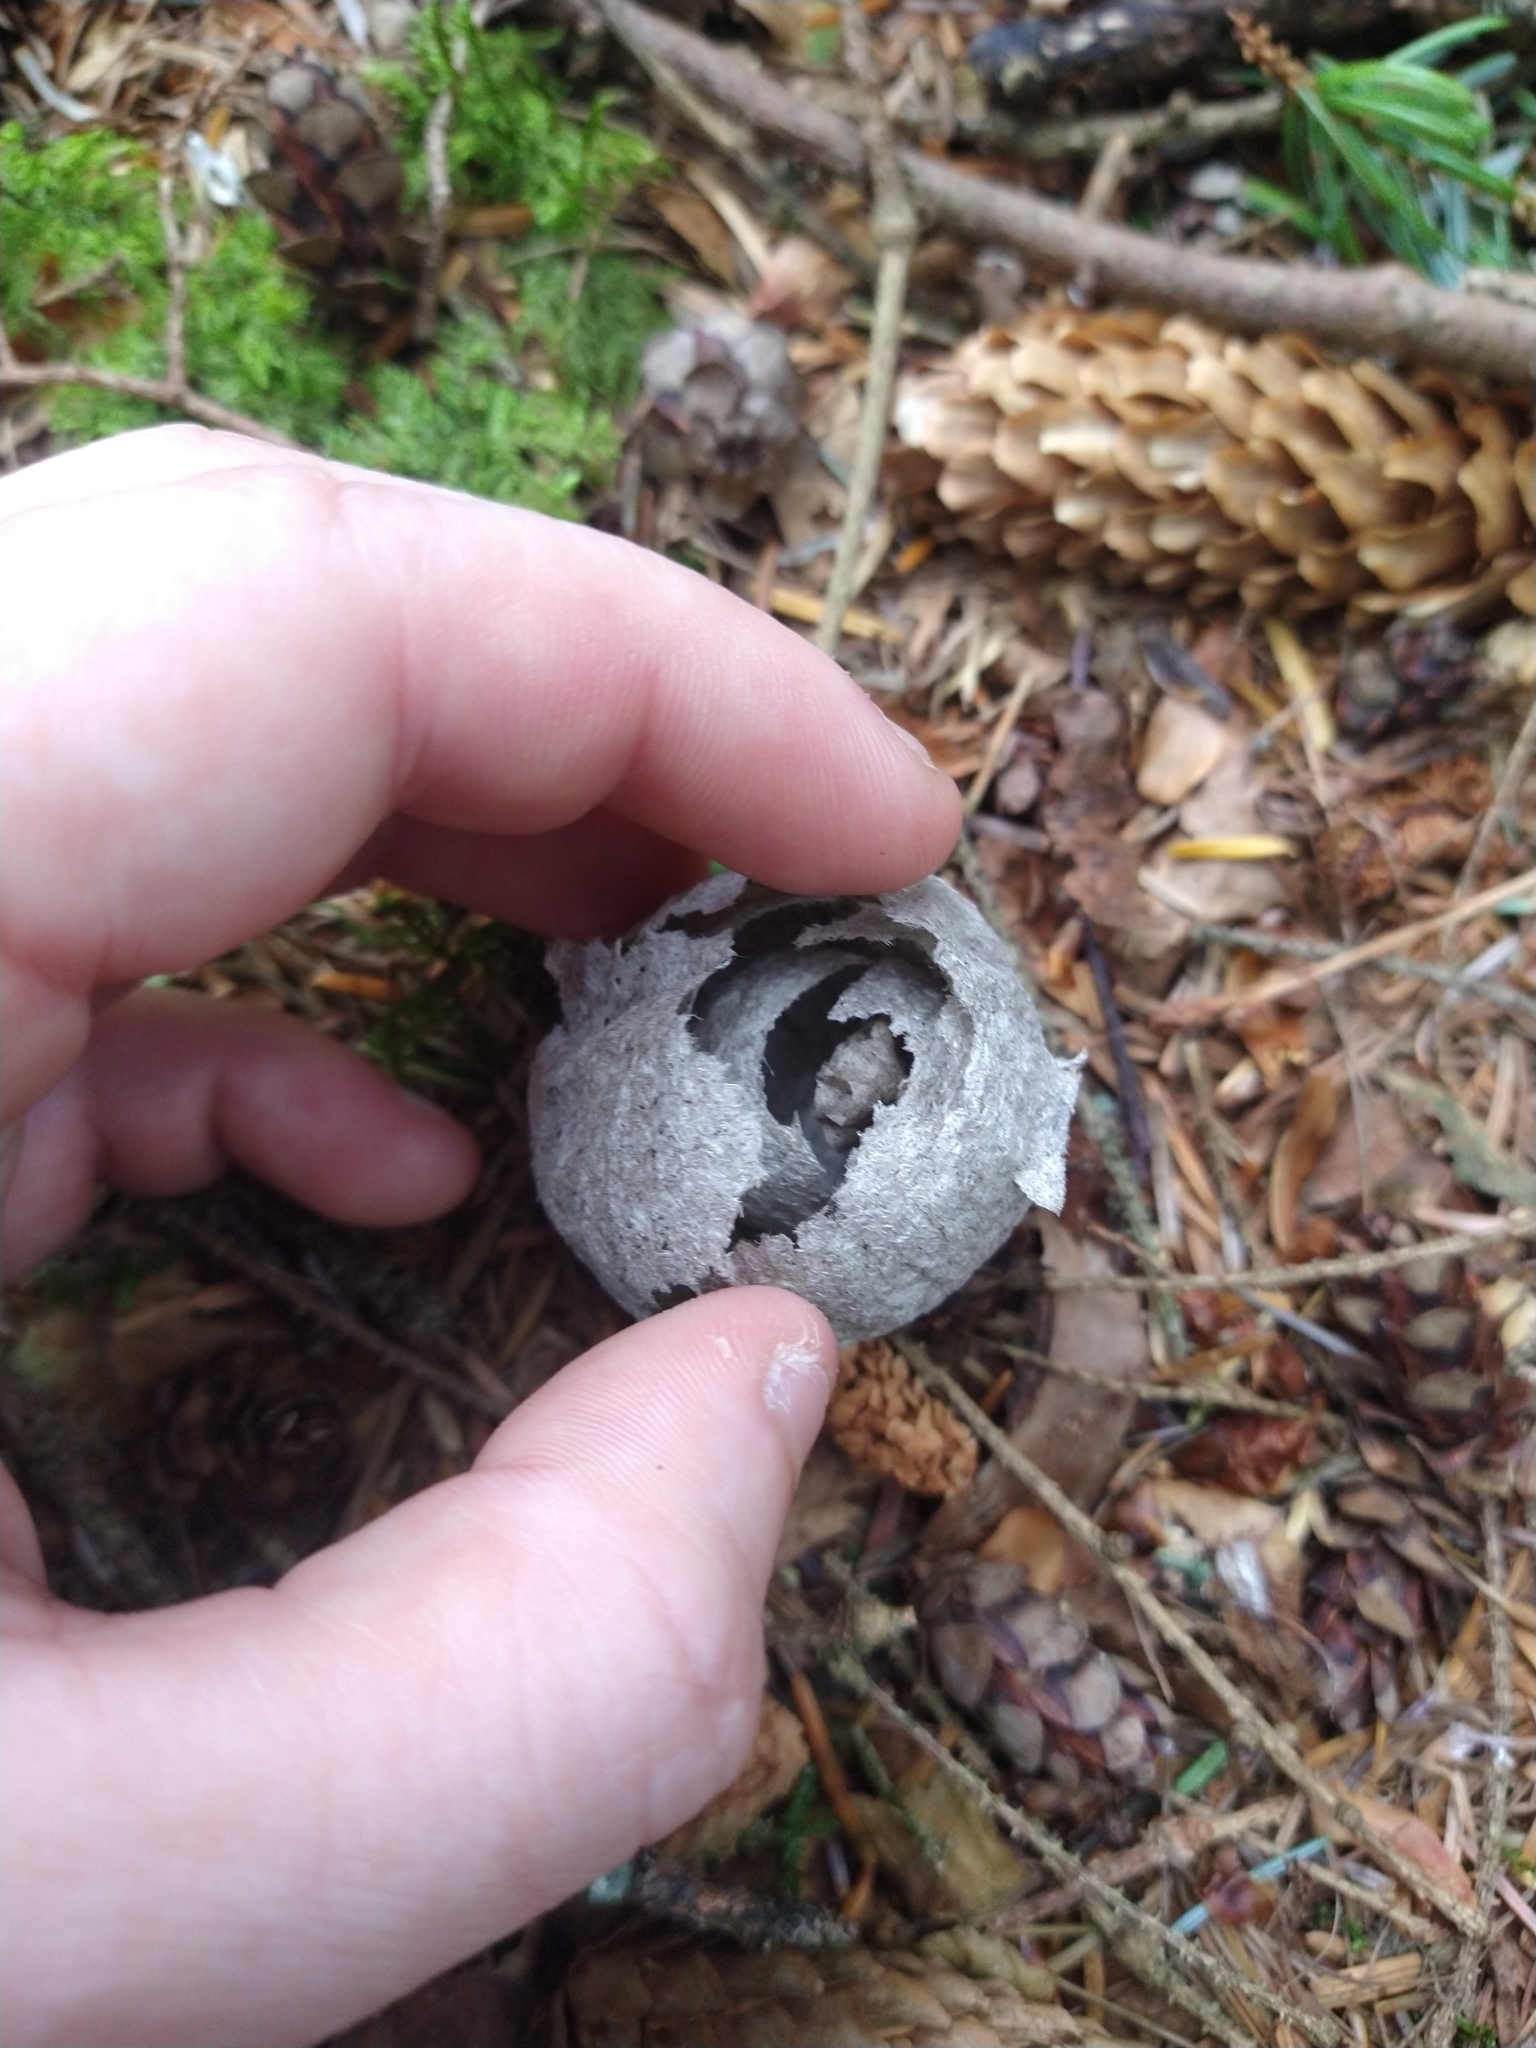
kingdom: Animalia
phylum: Arthropoda
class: Insecta
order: Hymenoptera
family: Vespidae
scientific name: Vespidae
